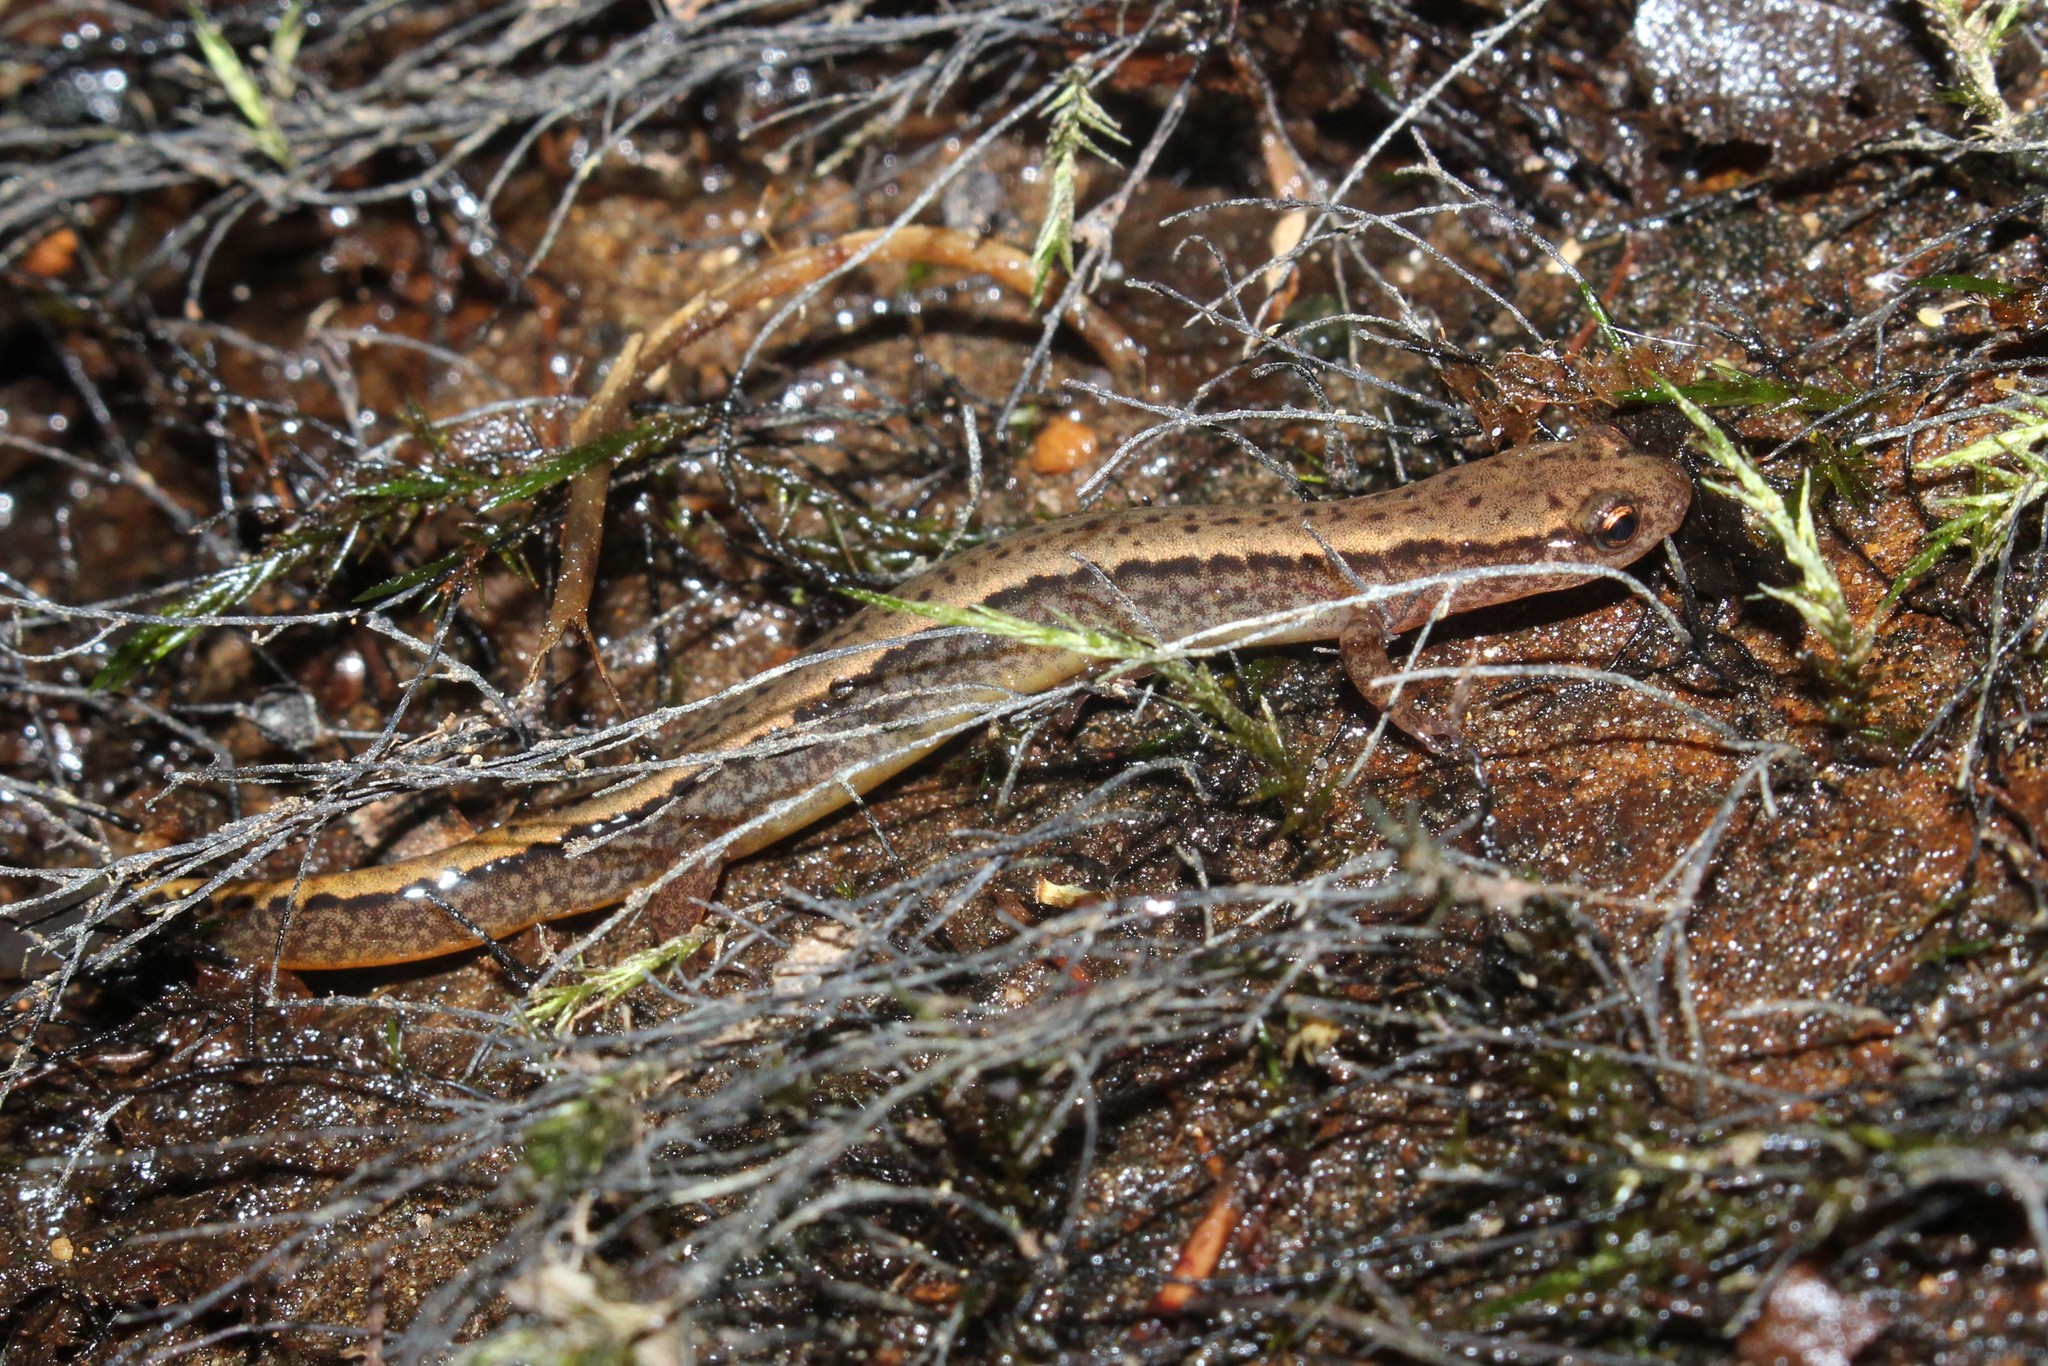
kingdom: Animalia
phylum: Chordata
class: Amphibia
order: Caudata
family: Plethodontidae
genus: Eurycea
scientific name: Eurycea bislineata
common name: Northern two-lined salamander
